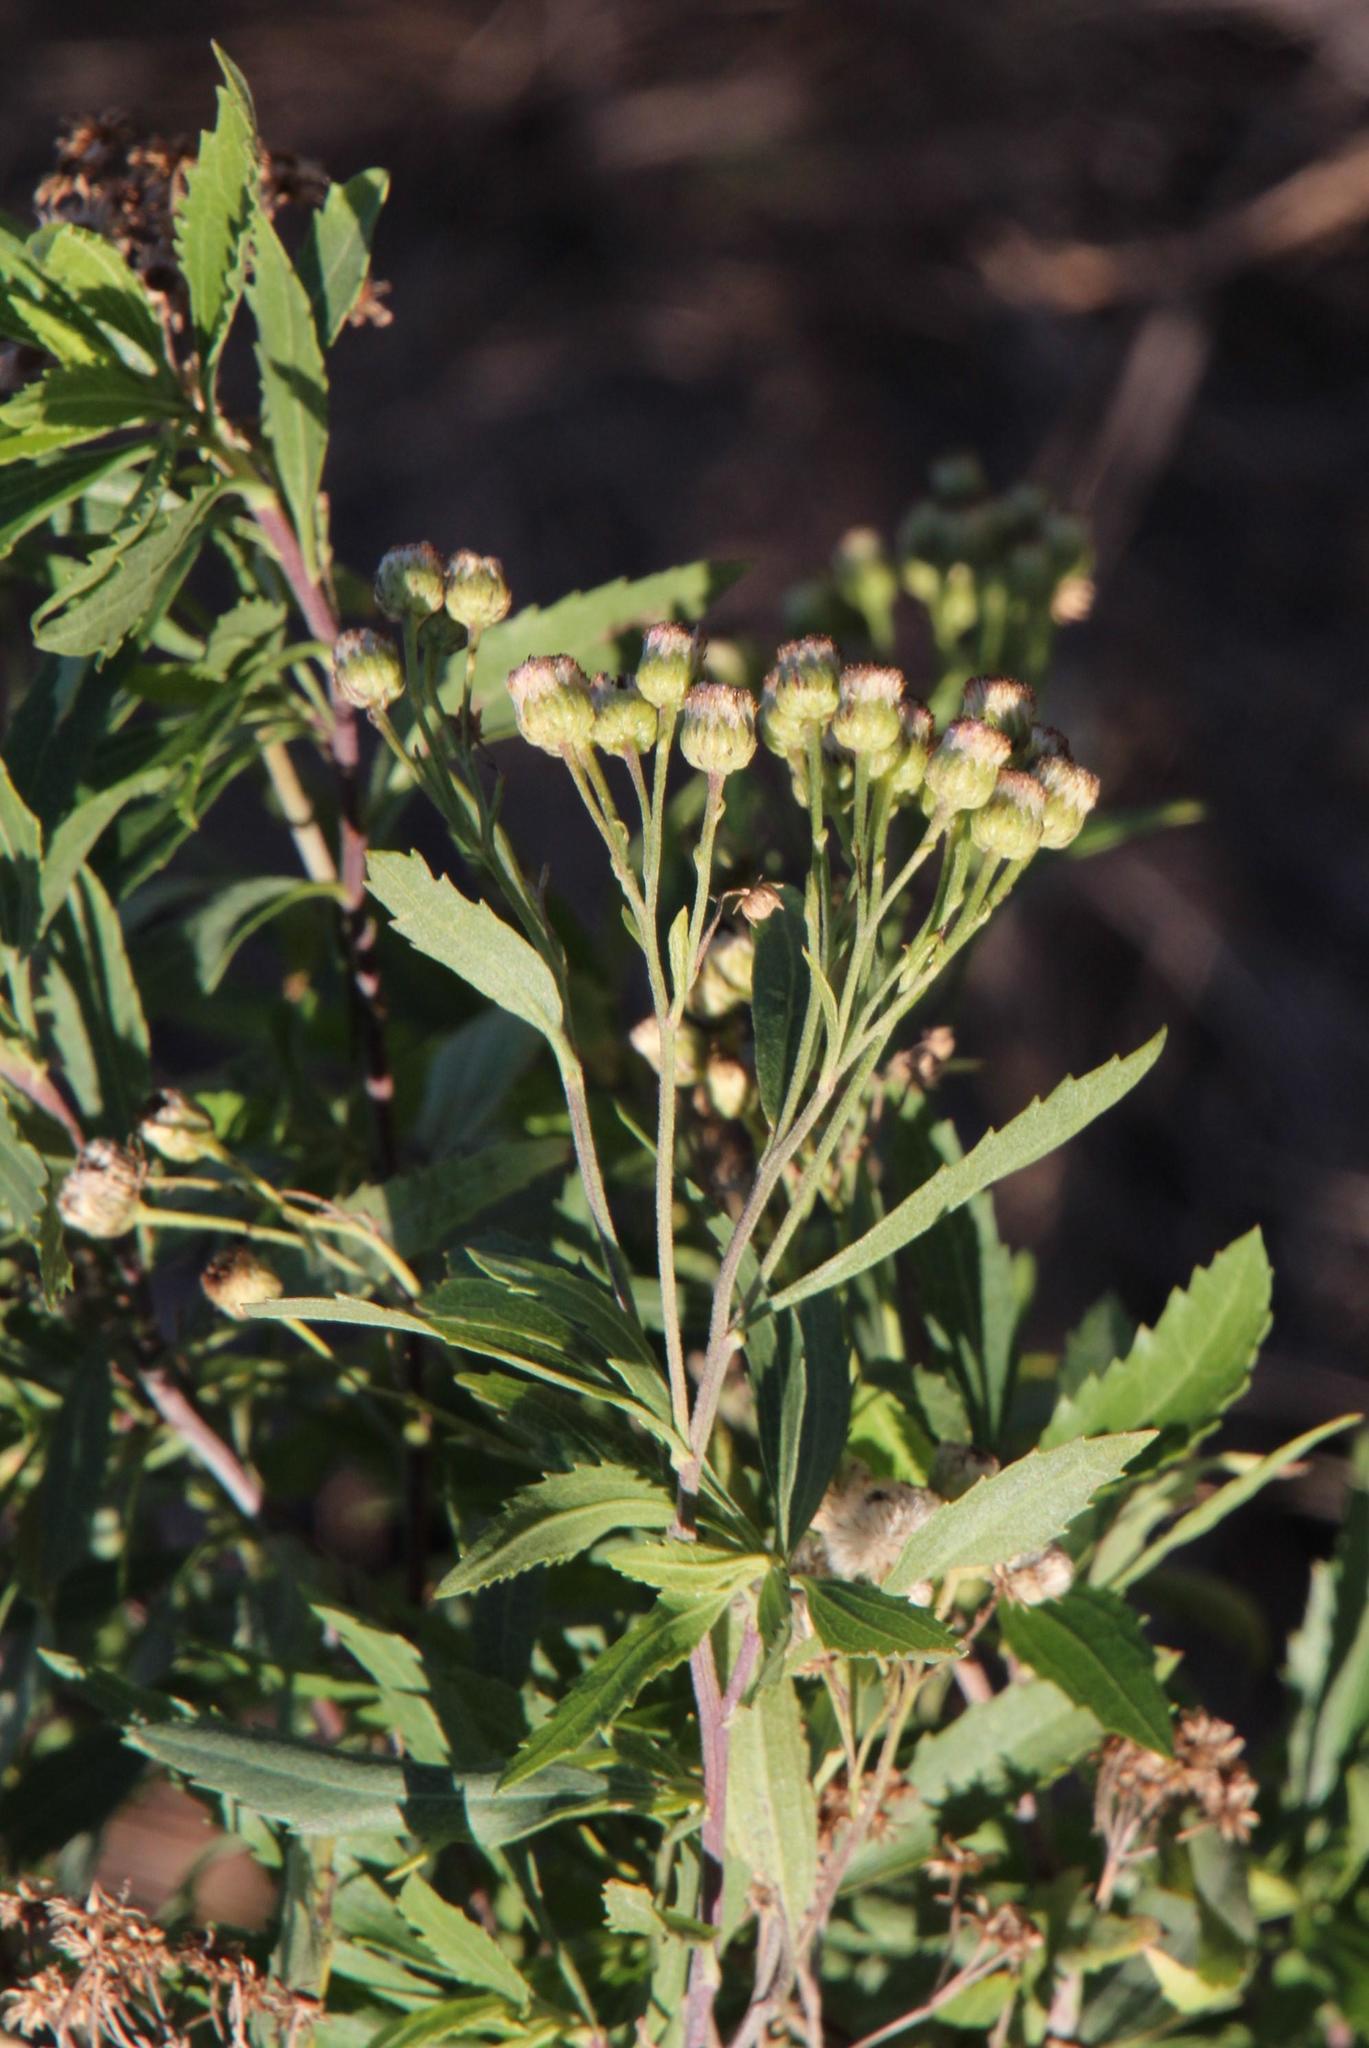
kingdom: Plantae
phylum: Tracheophyta
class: Magnoliopsida
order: Asterales
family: Asteraceae
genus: Nidorella
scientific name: Nidorella ivifolia
